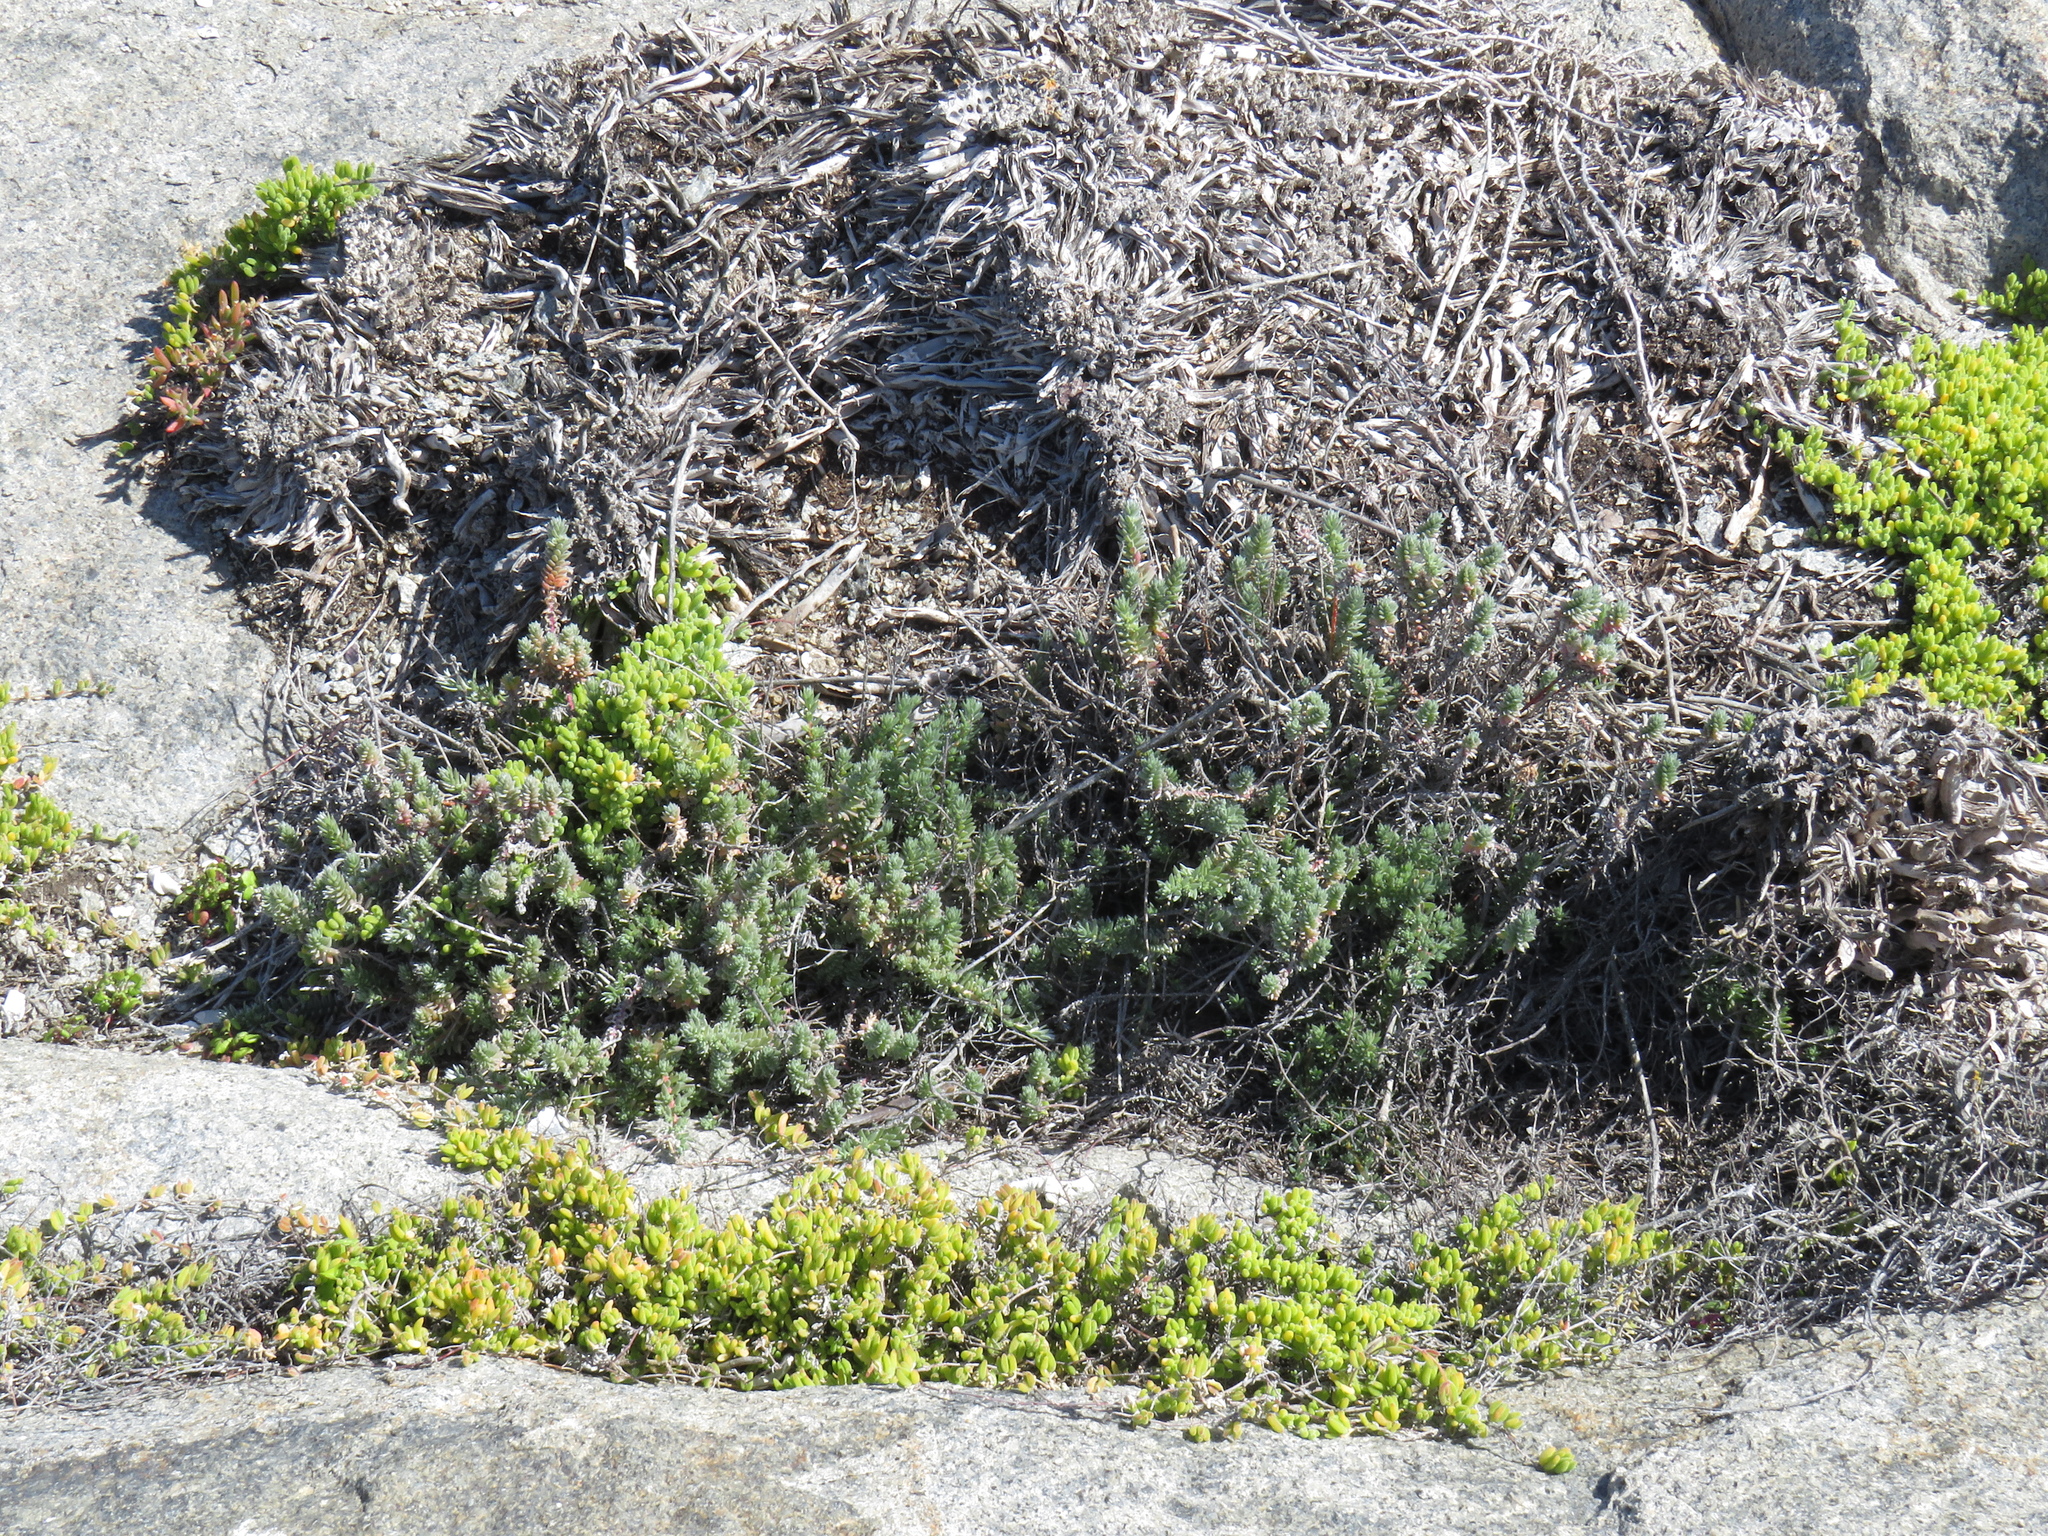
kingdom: Plantae
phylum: Tracheophyta
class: Magnoliopsida
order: Caryophyllales
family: Amaranthaceae
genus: Chenolea
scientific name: Chenolea diffusa
